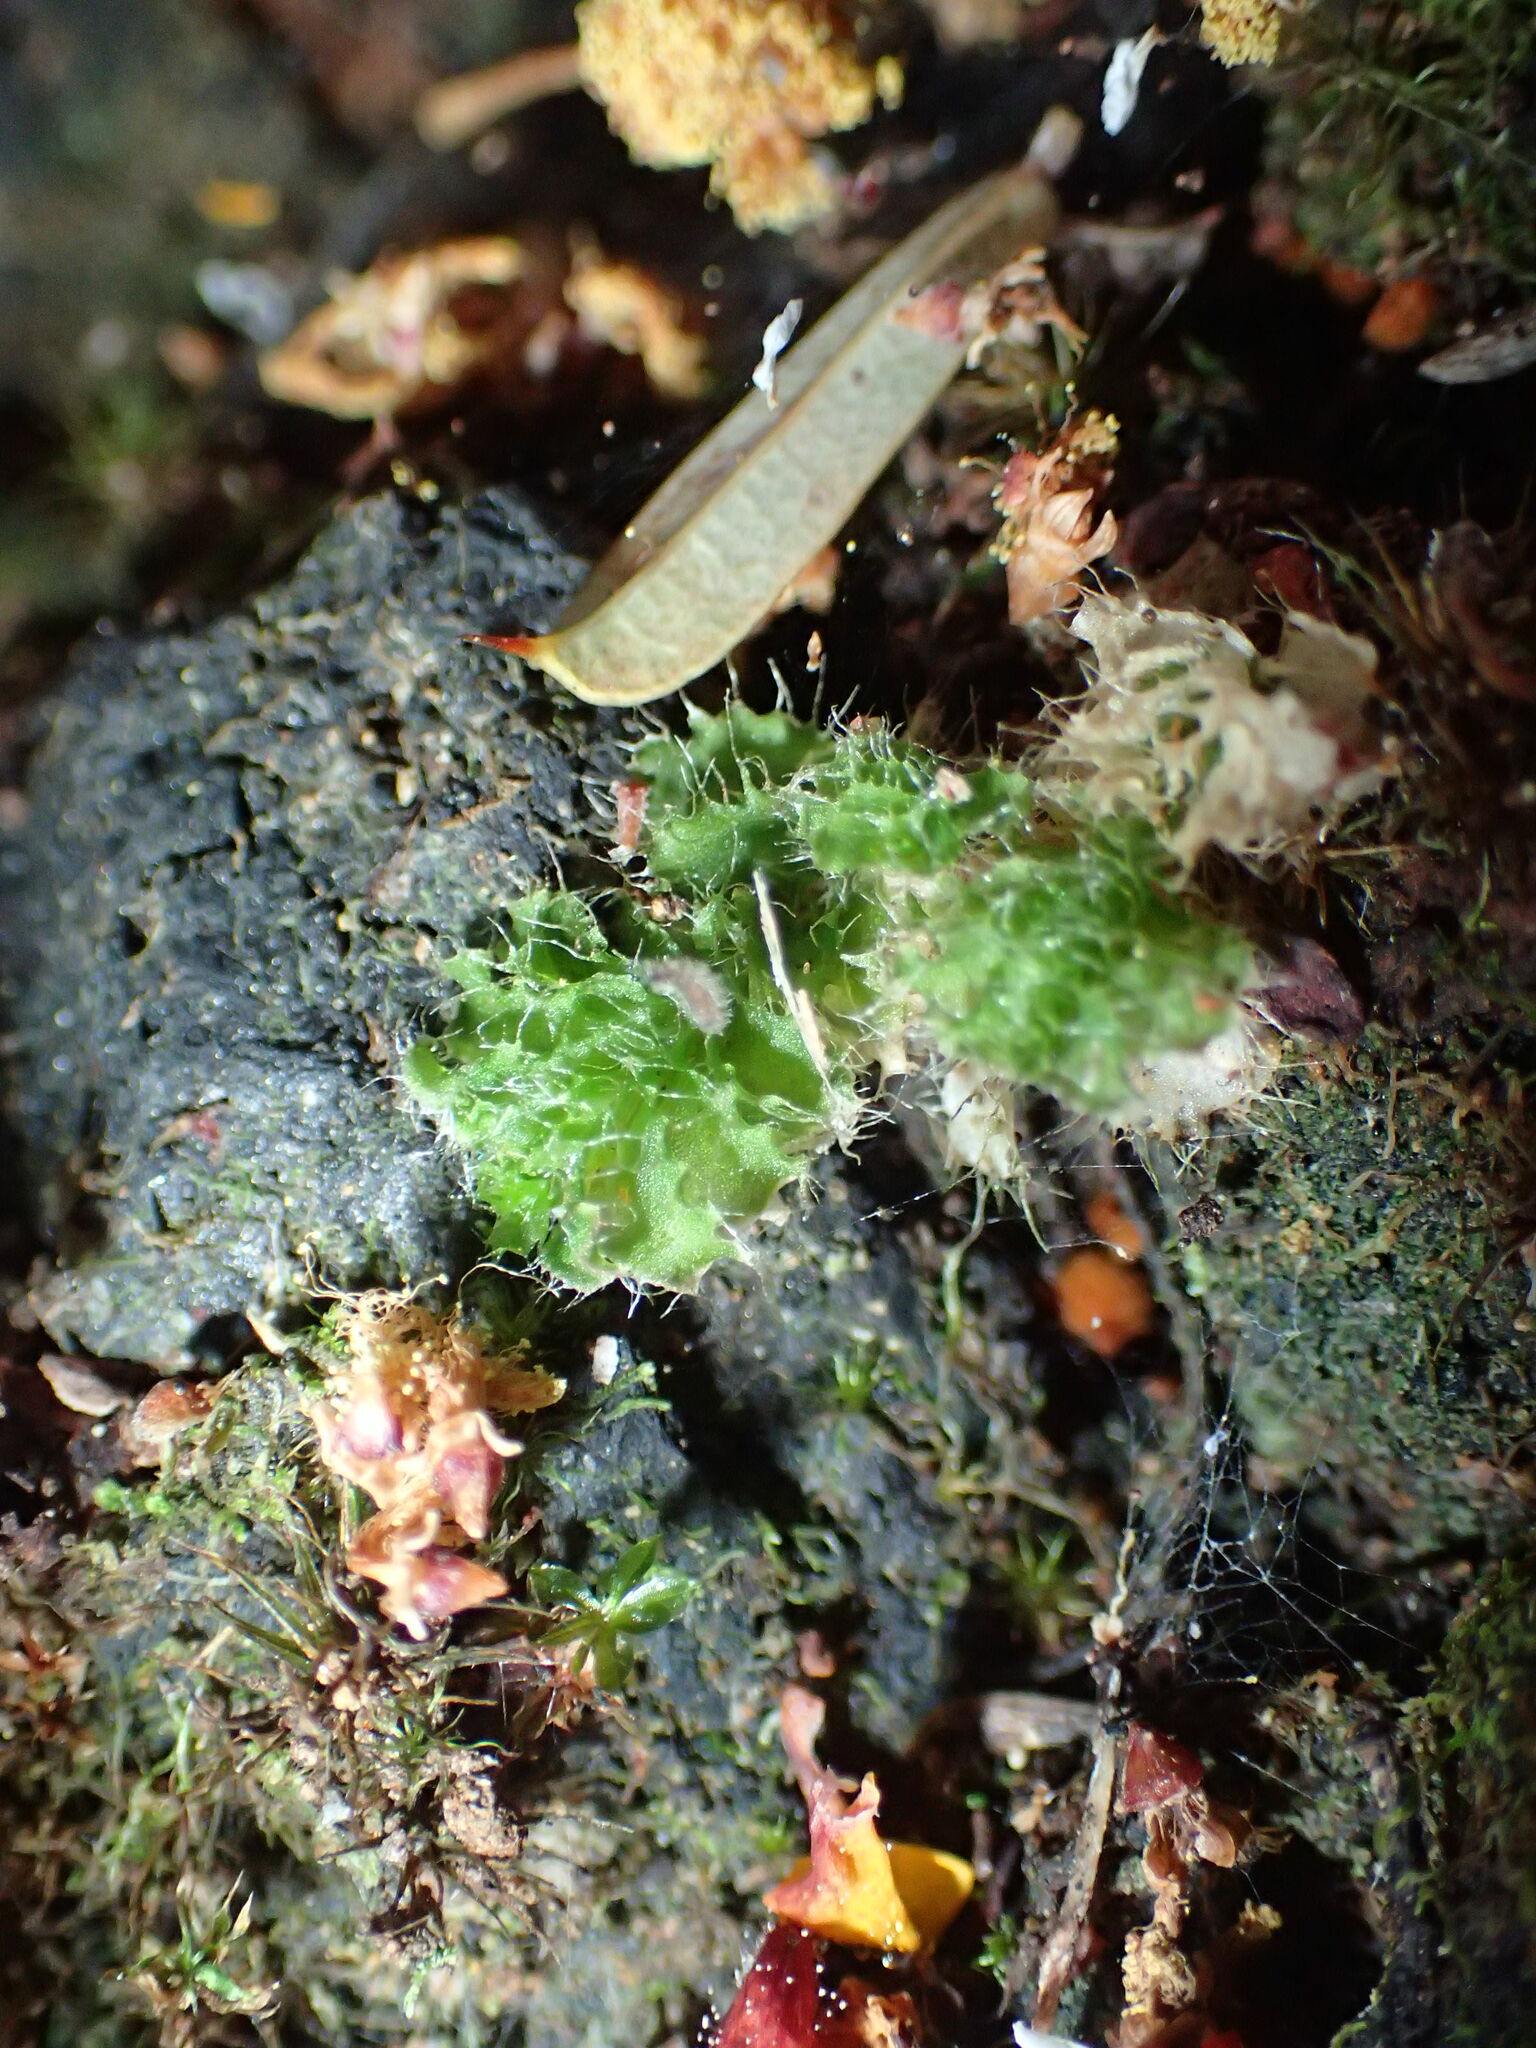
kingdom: Plantae
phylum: Marchantiophyta
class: Jungermanniopsida
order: Jungermanniales
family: Cephaloziellaceae
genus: Chaetophyllopsis
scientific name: Chaetophyllopsis whiteleggei
